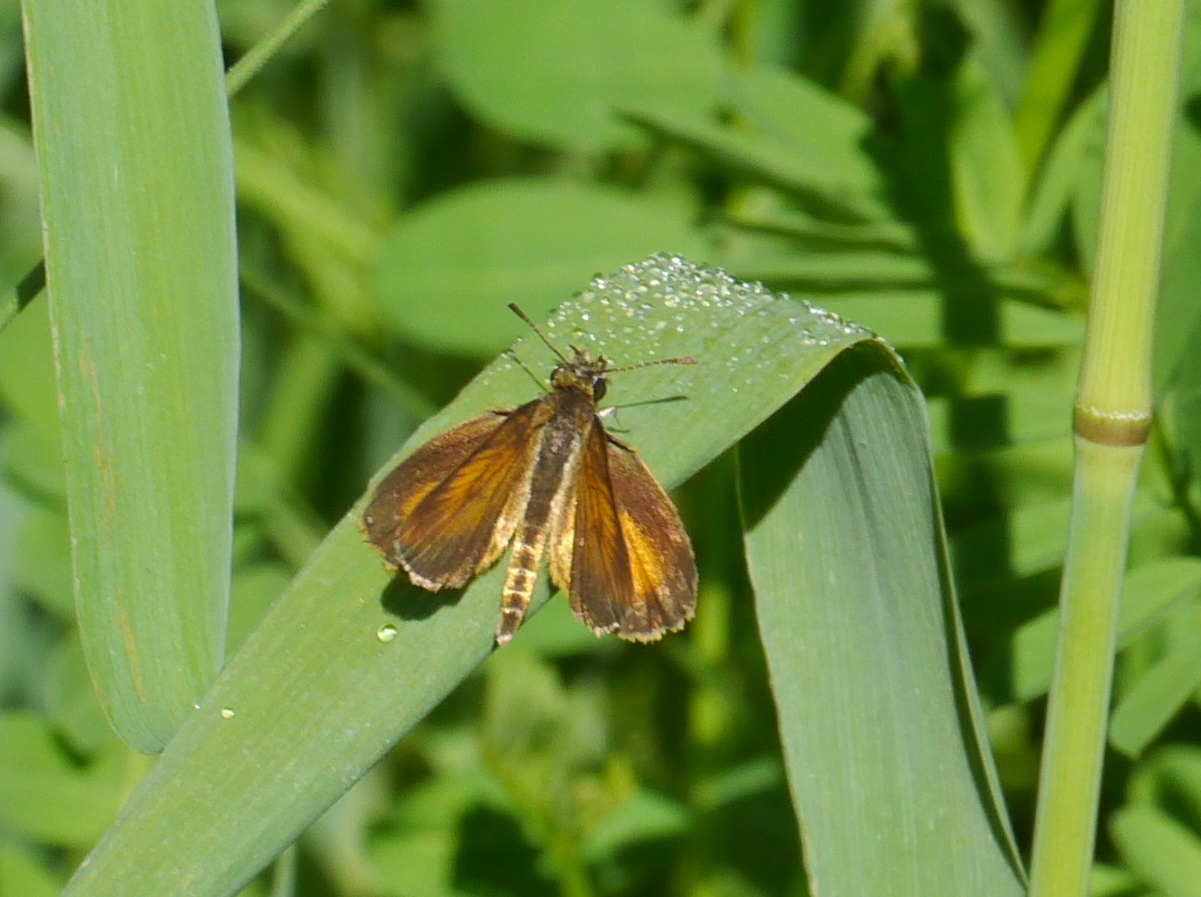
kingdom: Animalia
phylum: Arthropoda
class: Insecta
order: Lepidoptera
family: Hesperiidae
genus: Ancyloxypha
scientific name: Ancyloxypha numitor
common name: Least skipper
